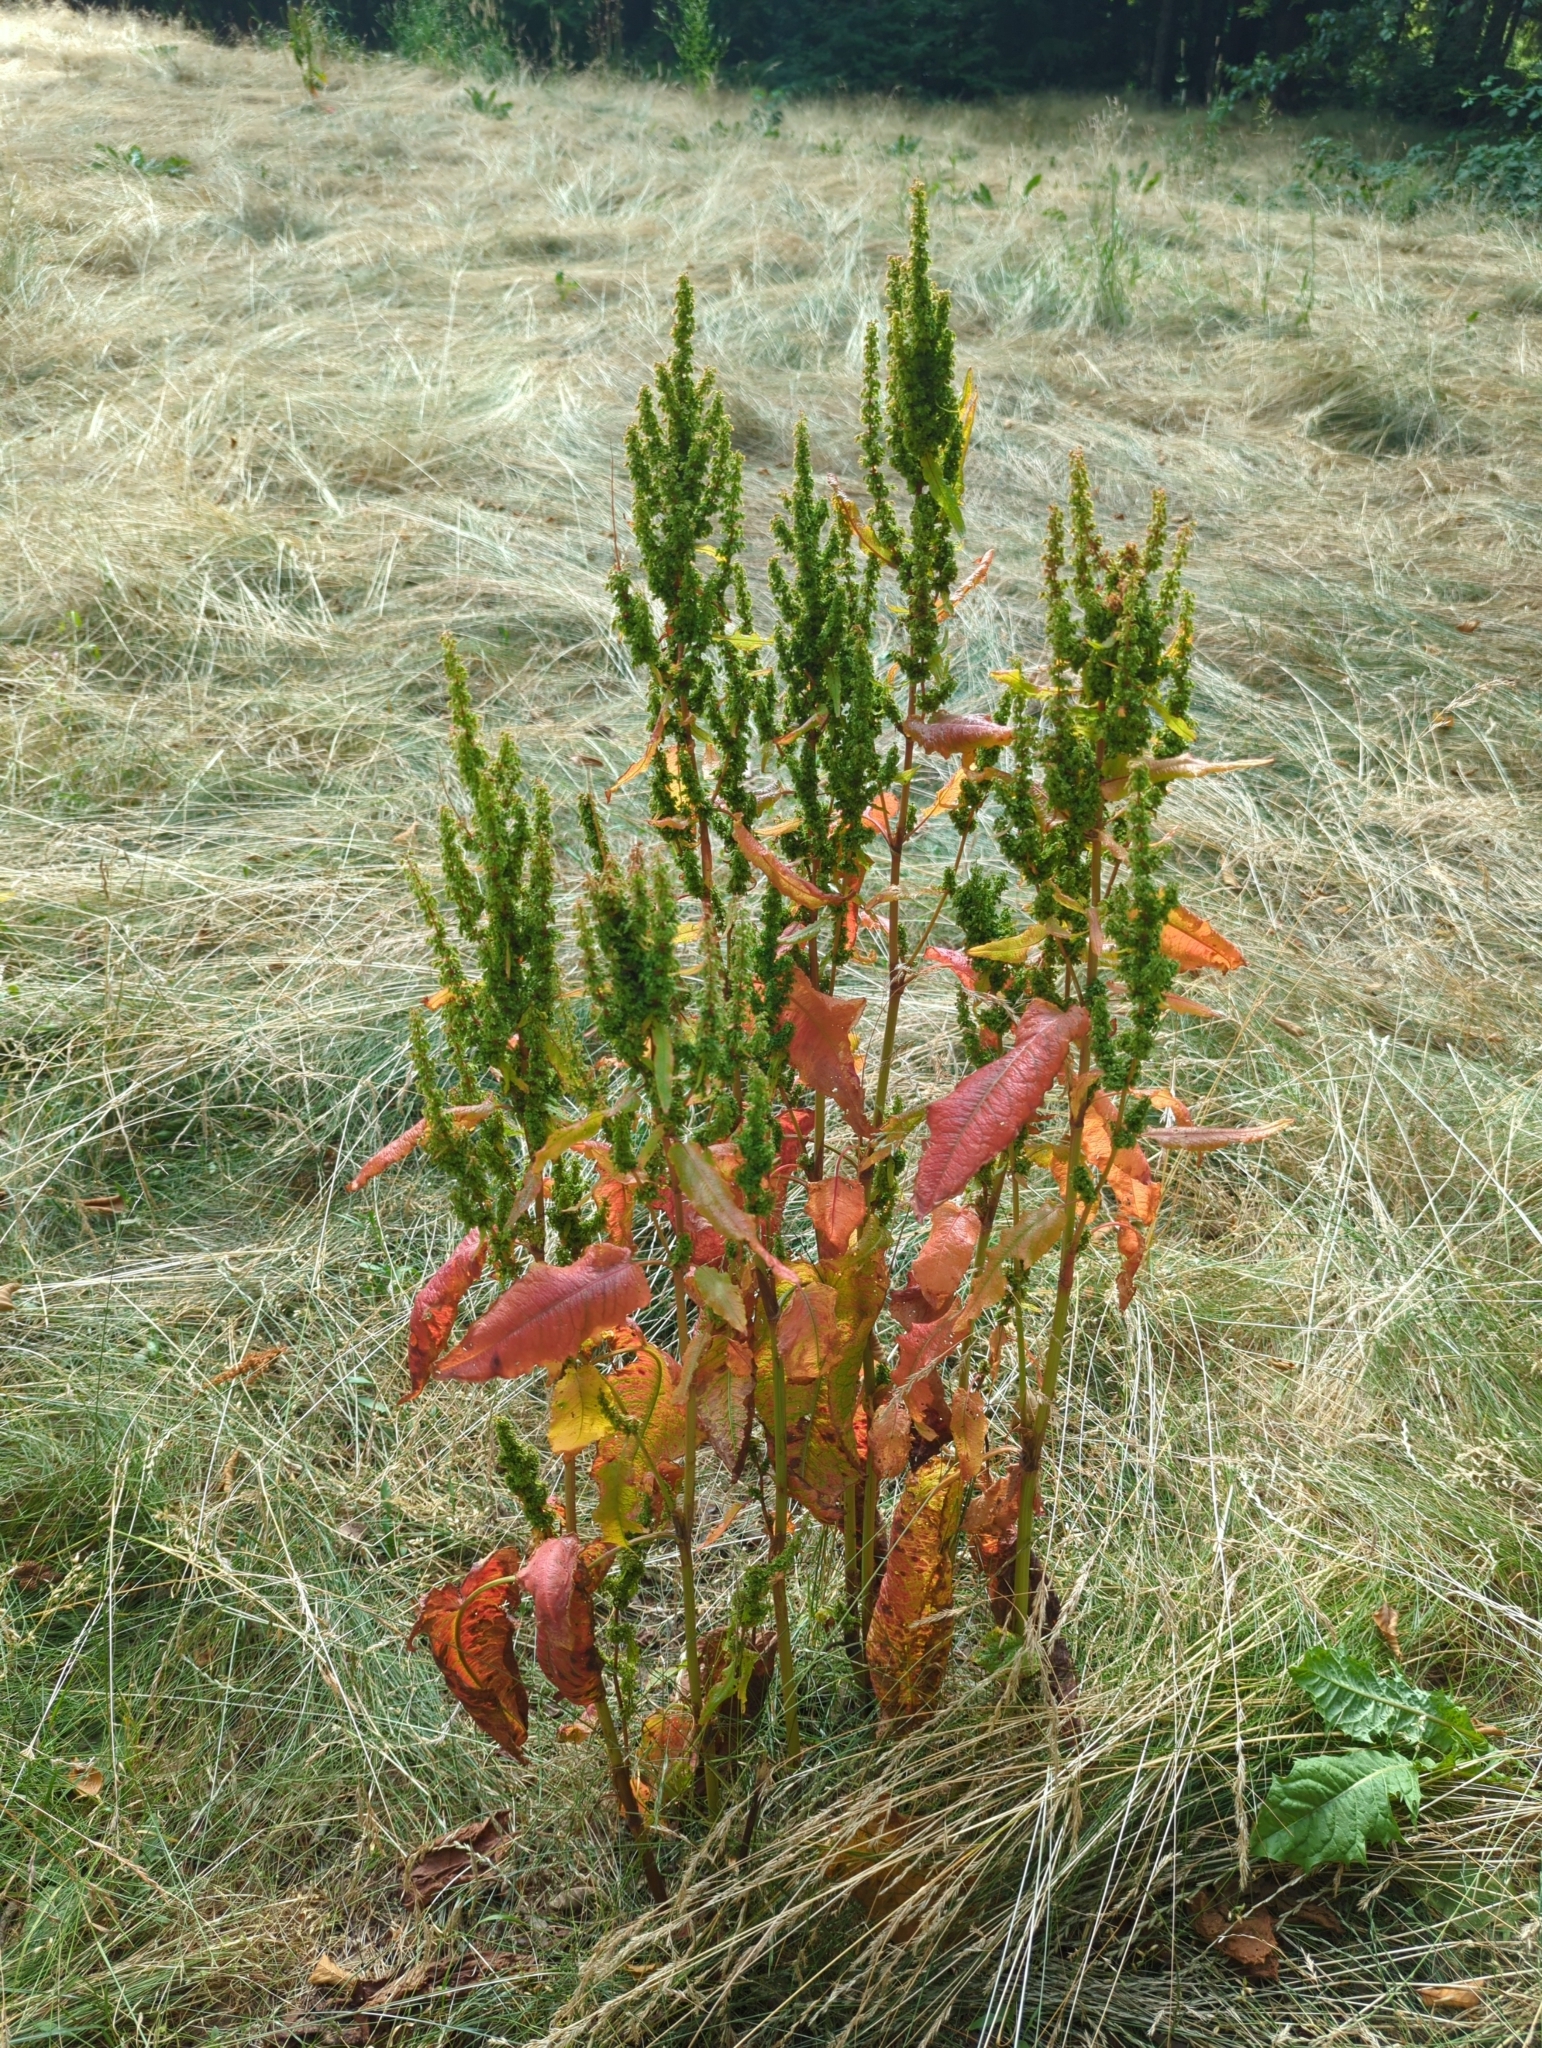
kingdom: Plantae
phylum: Tracheophyta
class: Magnoliopsida
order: Caryophyllales
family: Polygonaceae
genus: Rumex
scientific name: Rumex occidentalis
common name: Western dock
